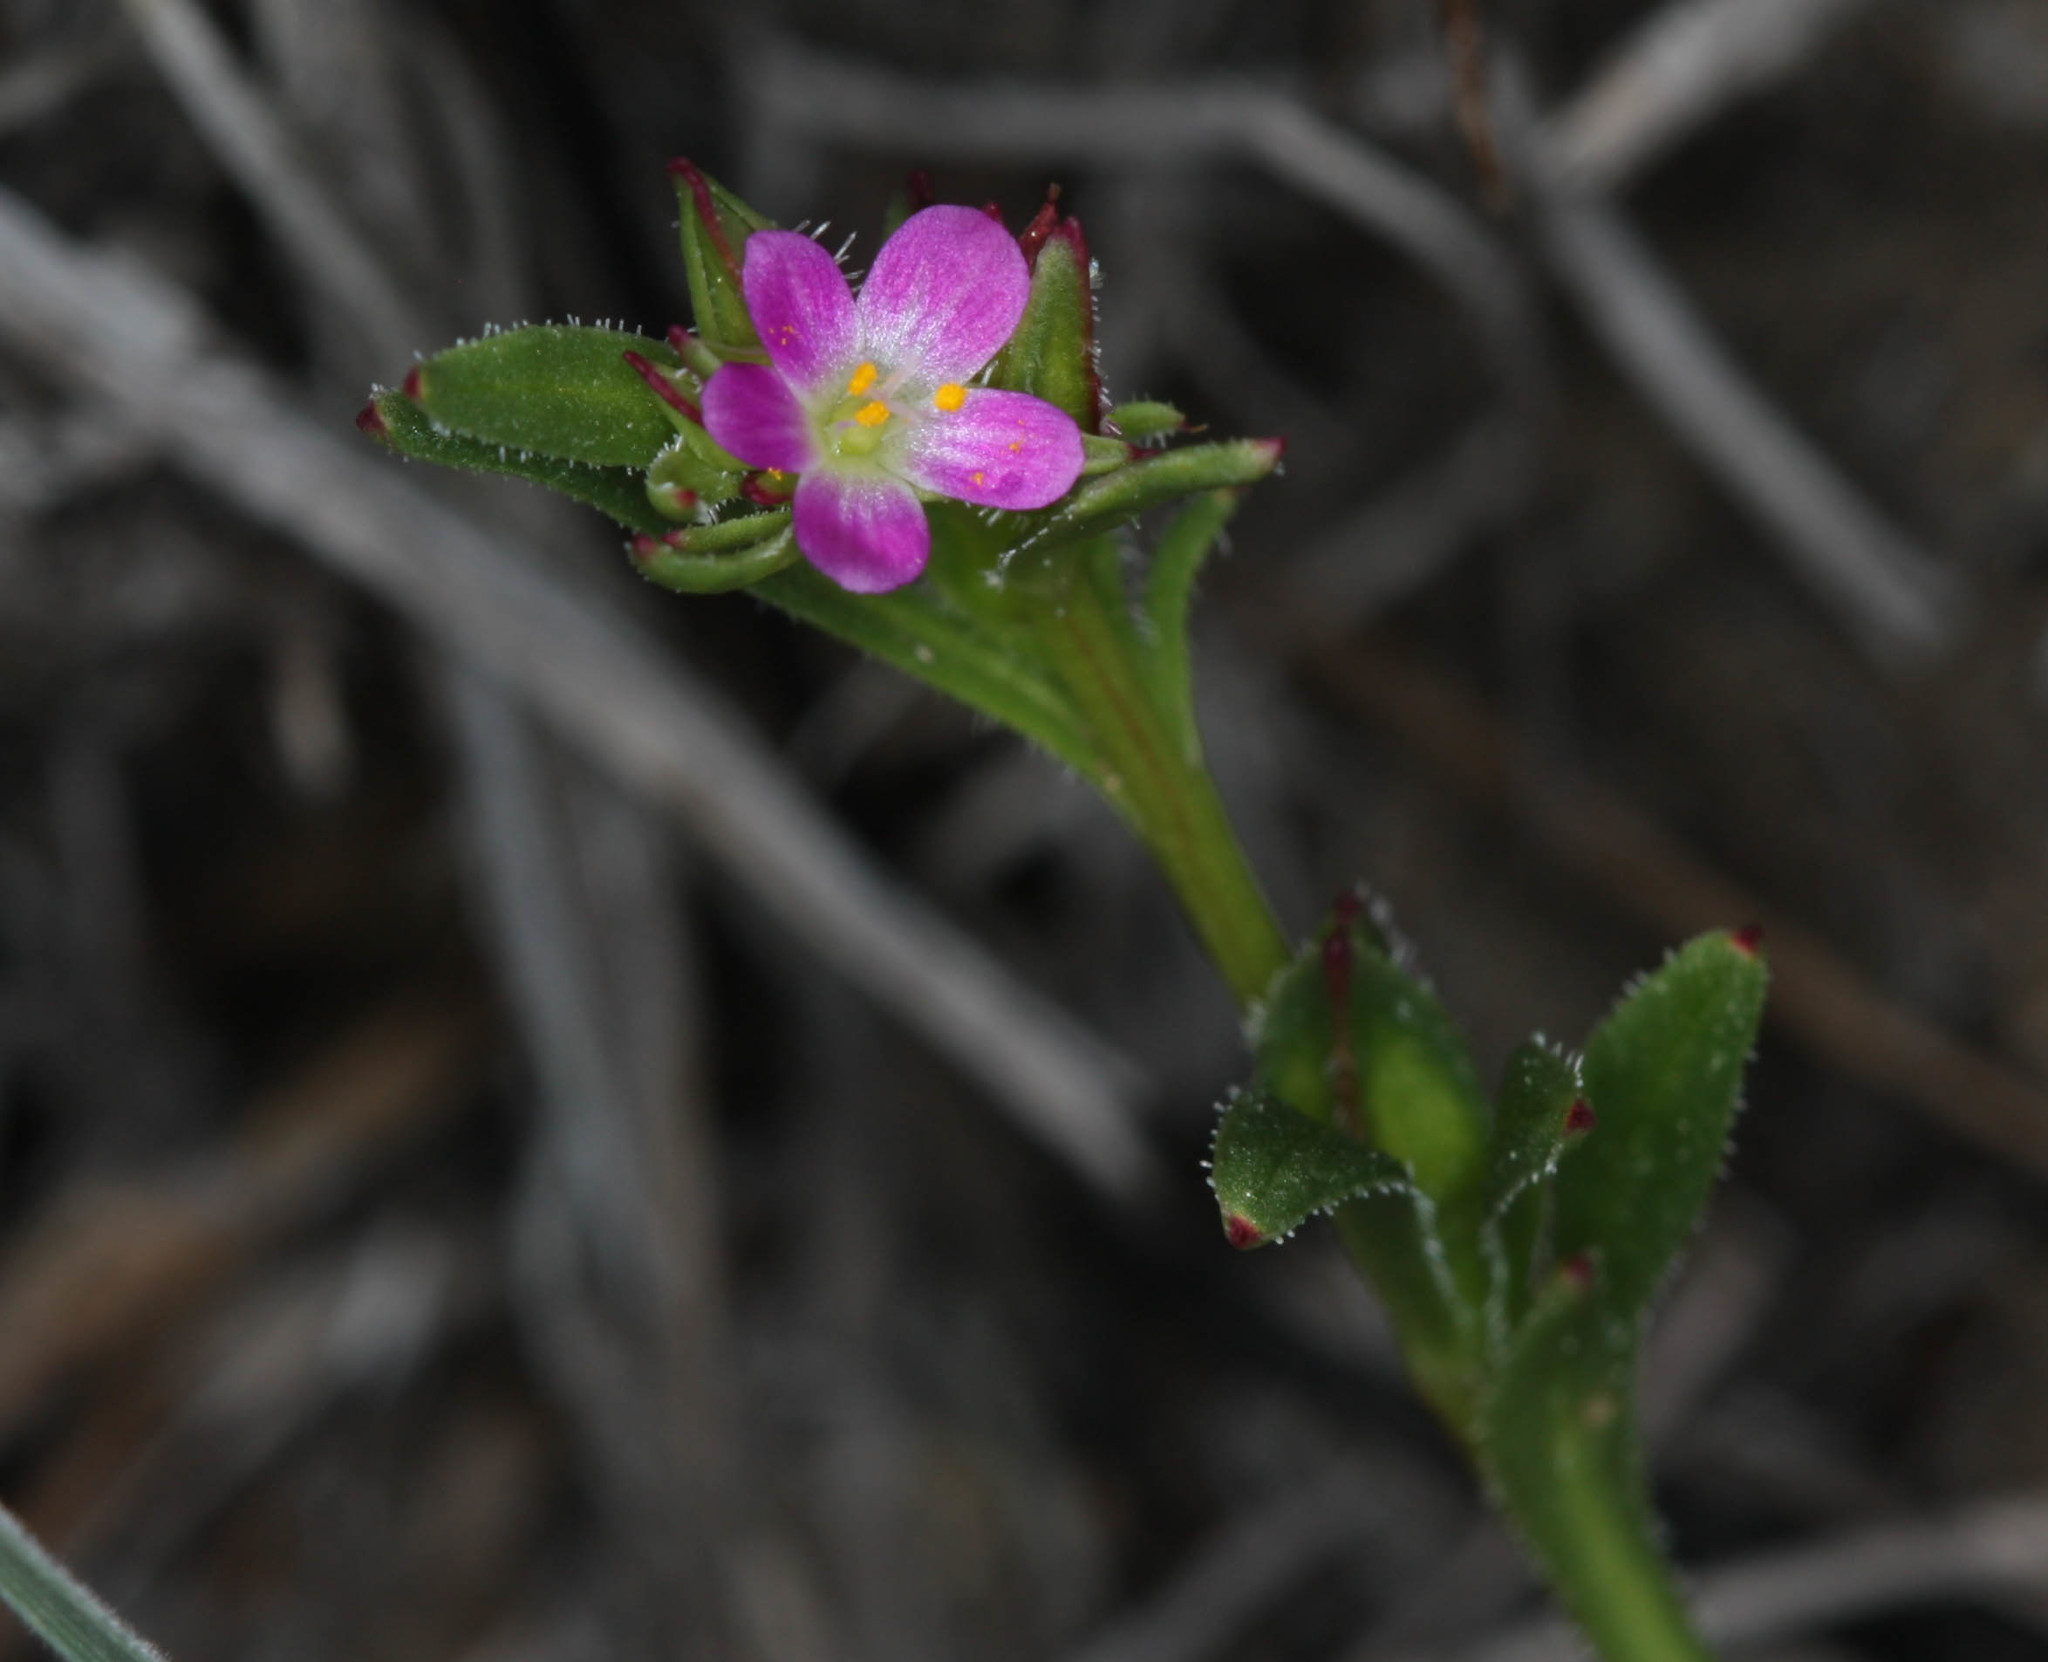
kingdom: Plantae
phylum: Tracheophyta
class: Magnoliopsida
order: Caryophyllales
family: Montiaceae
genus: Calandrinia
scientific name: Calandrinia menziesii
